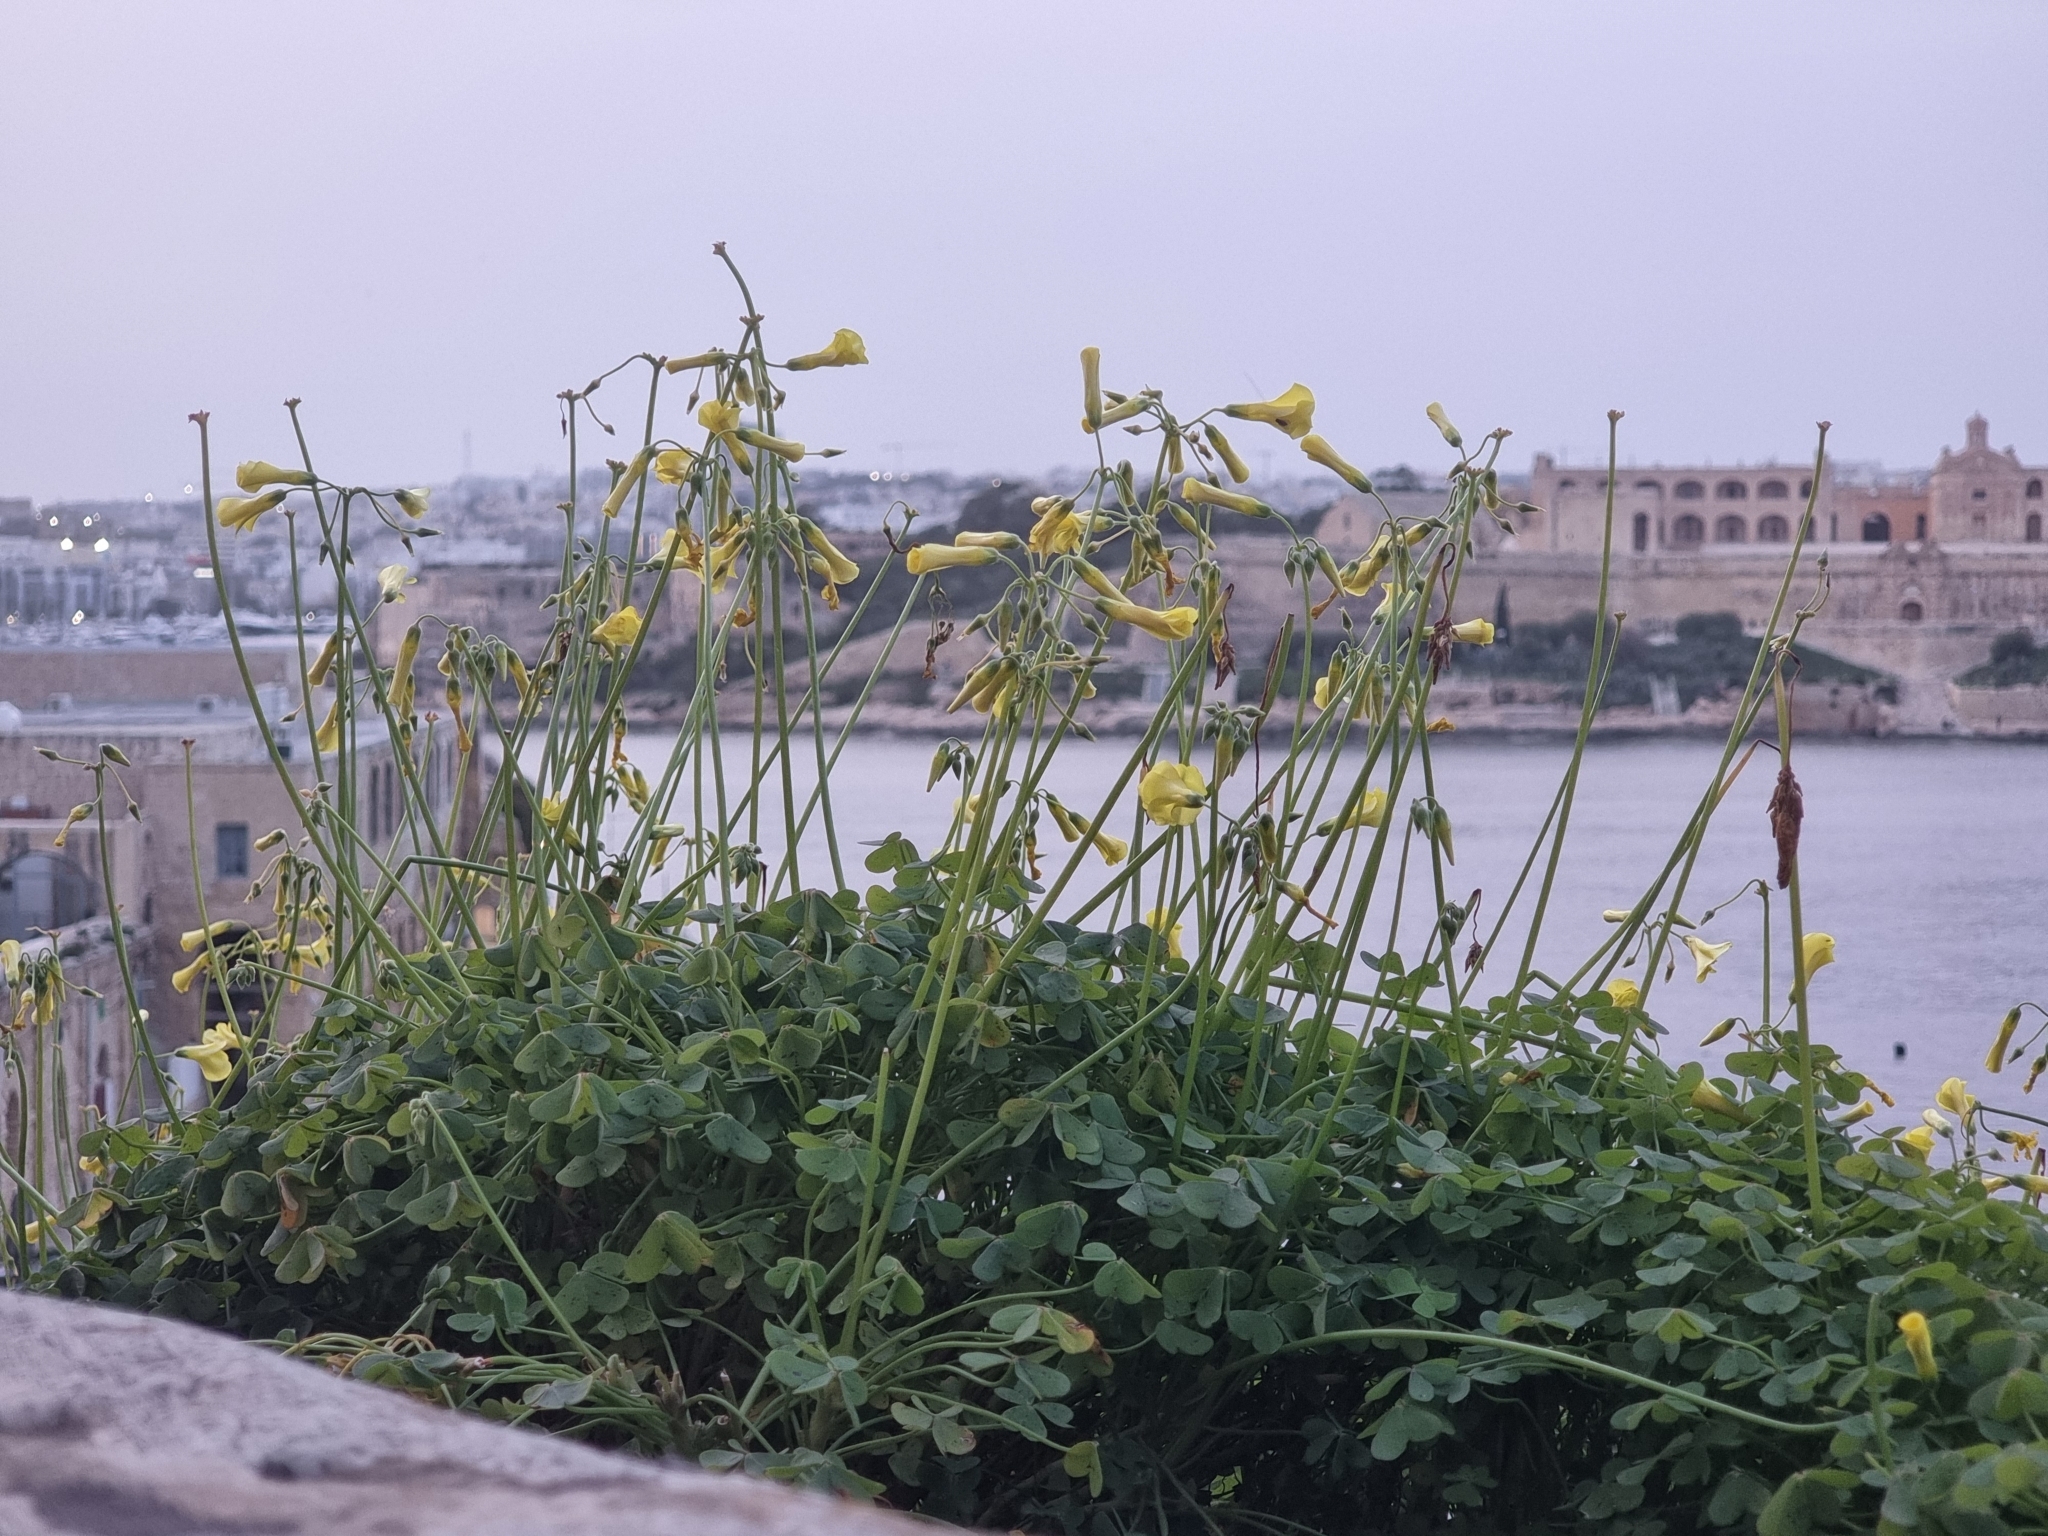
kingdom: Plantae
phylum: Tracheophyta
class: Magnoliopsida
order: Oxalidales
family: Oxalidaceae
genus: Oxalis
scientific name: Oxalis pes-caprae
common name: Bermuda-buttercup
